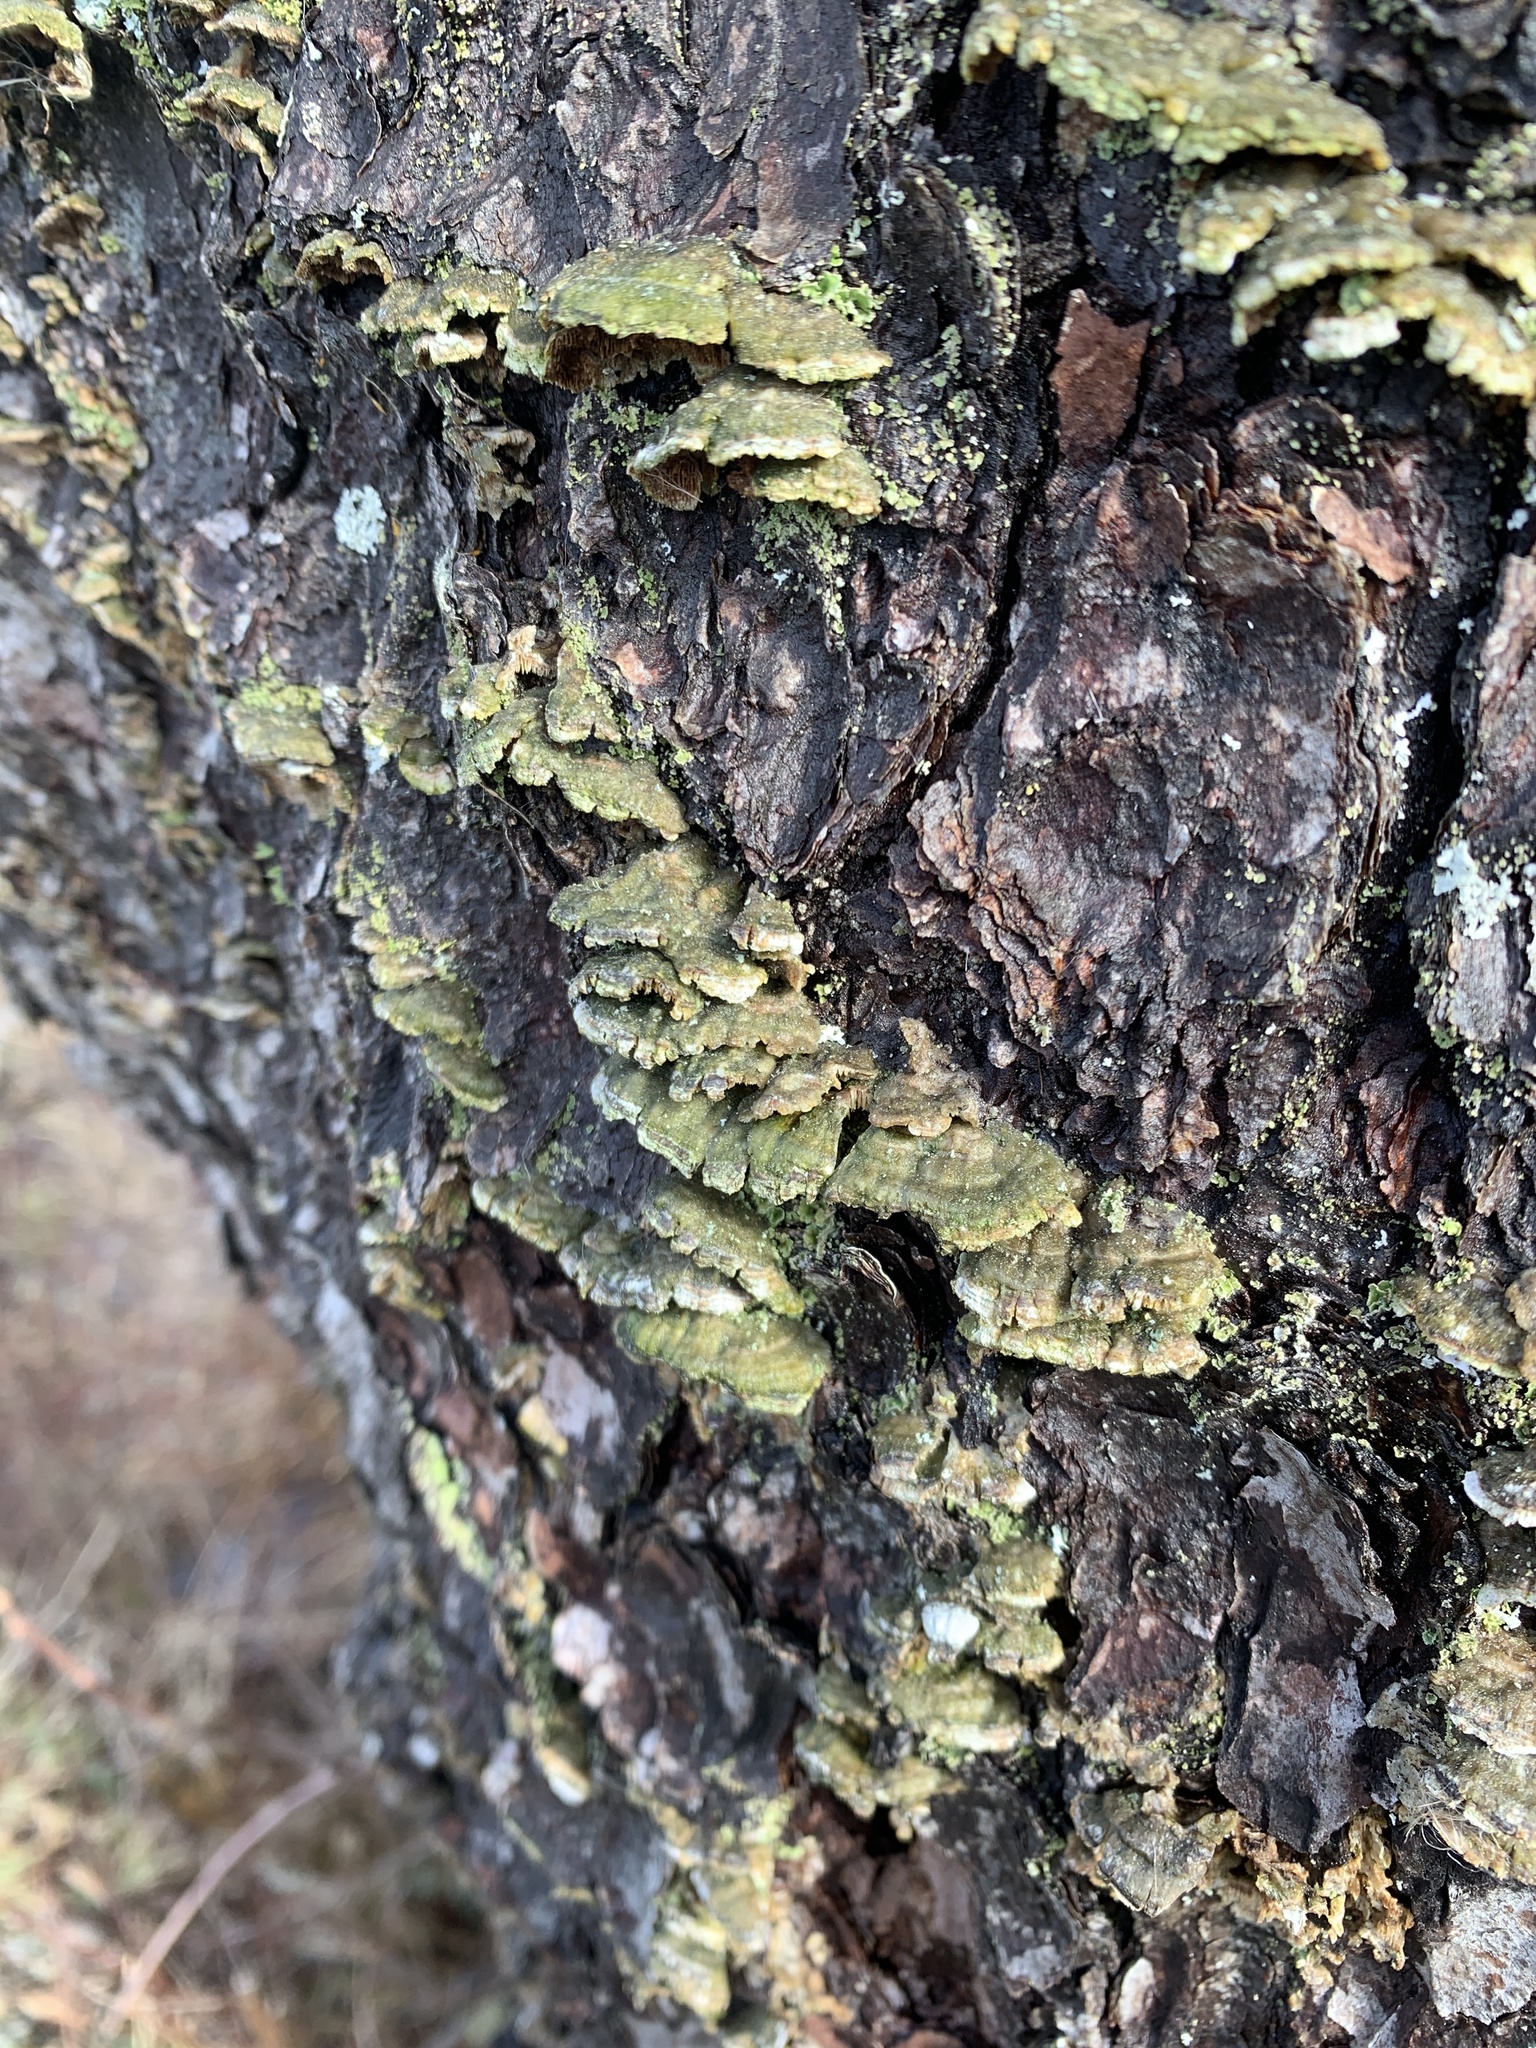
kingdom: Fungi
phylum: Basidiomycota
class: Agaricomycetes
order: Hymenochaetales
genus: Trichaptum
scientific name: Trichaptum abietinum
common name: Purplepore bracket
